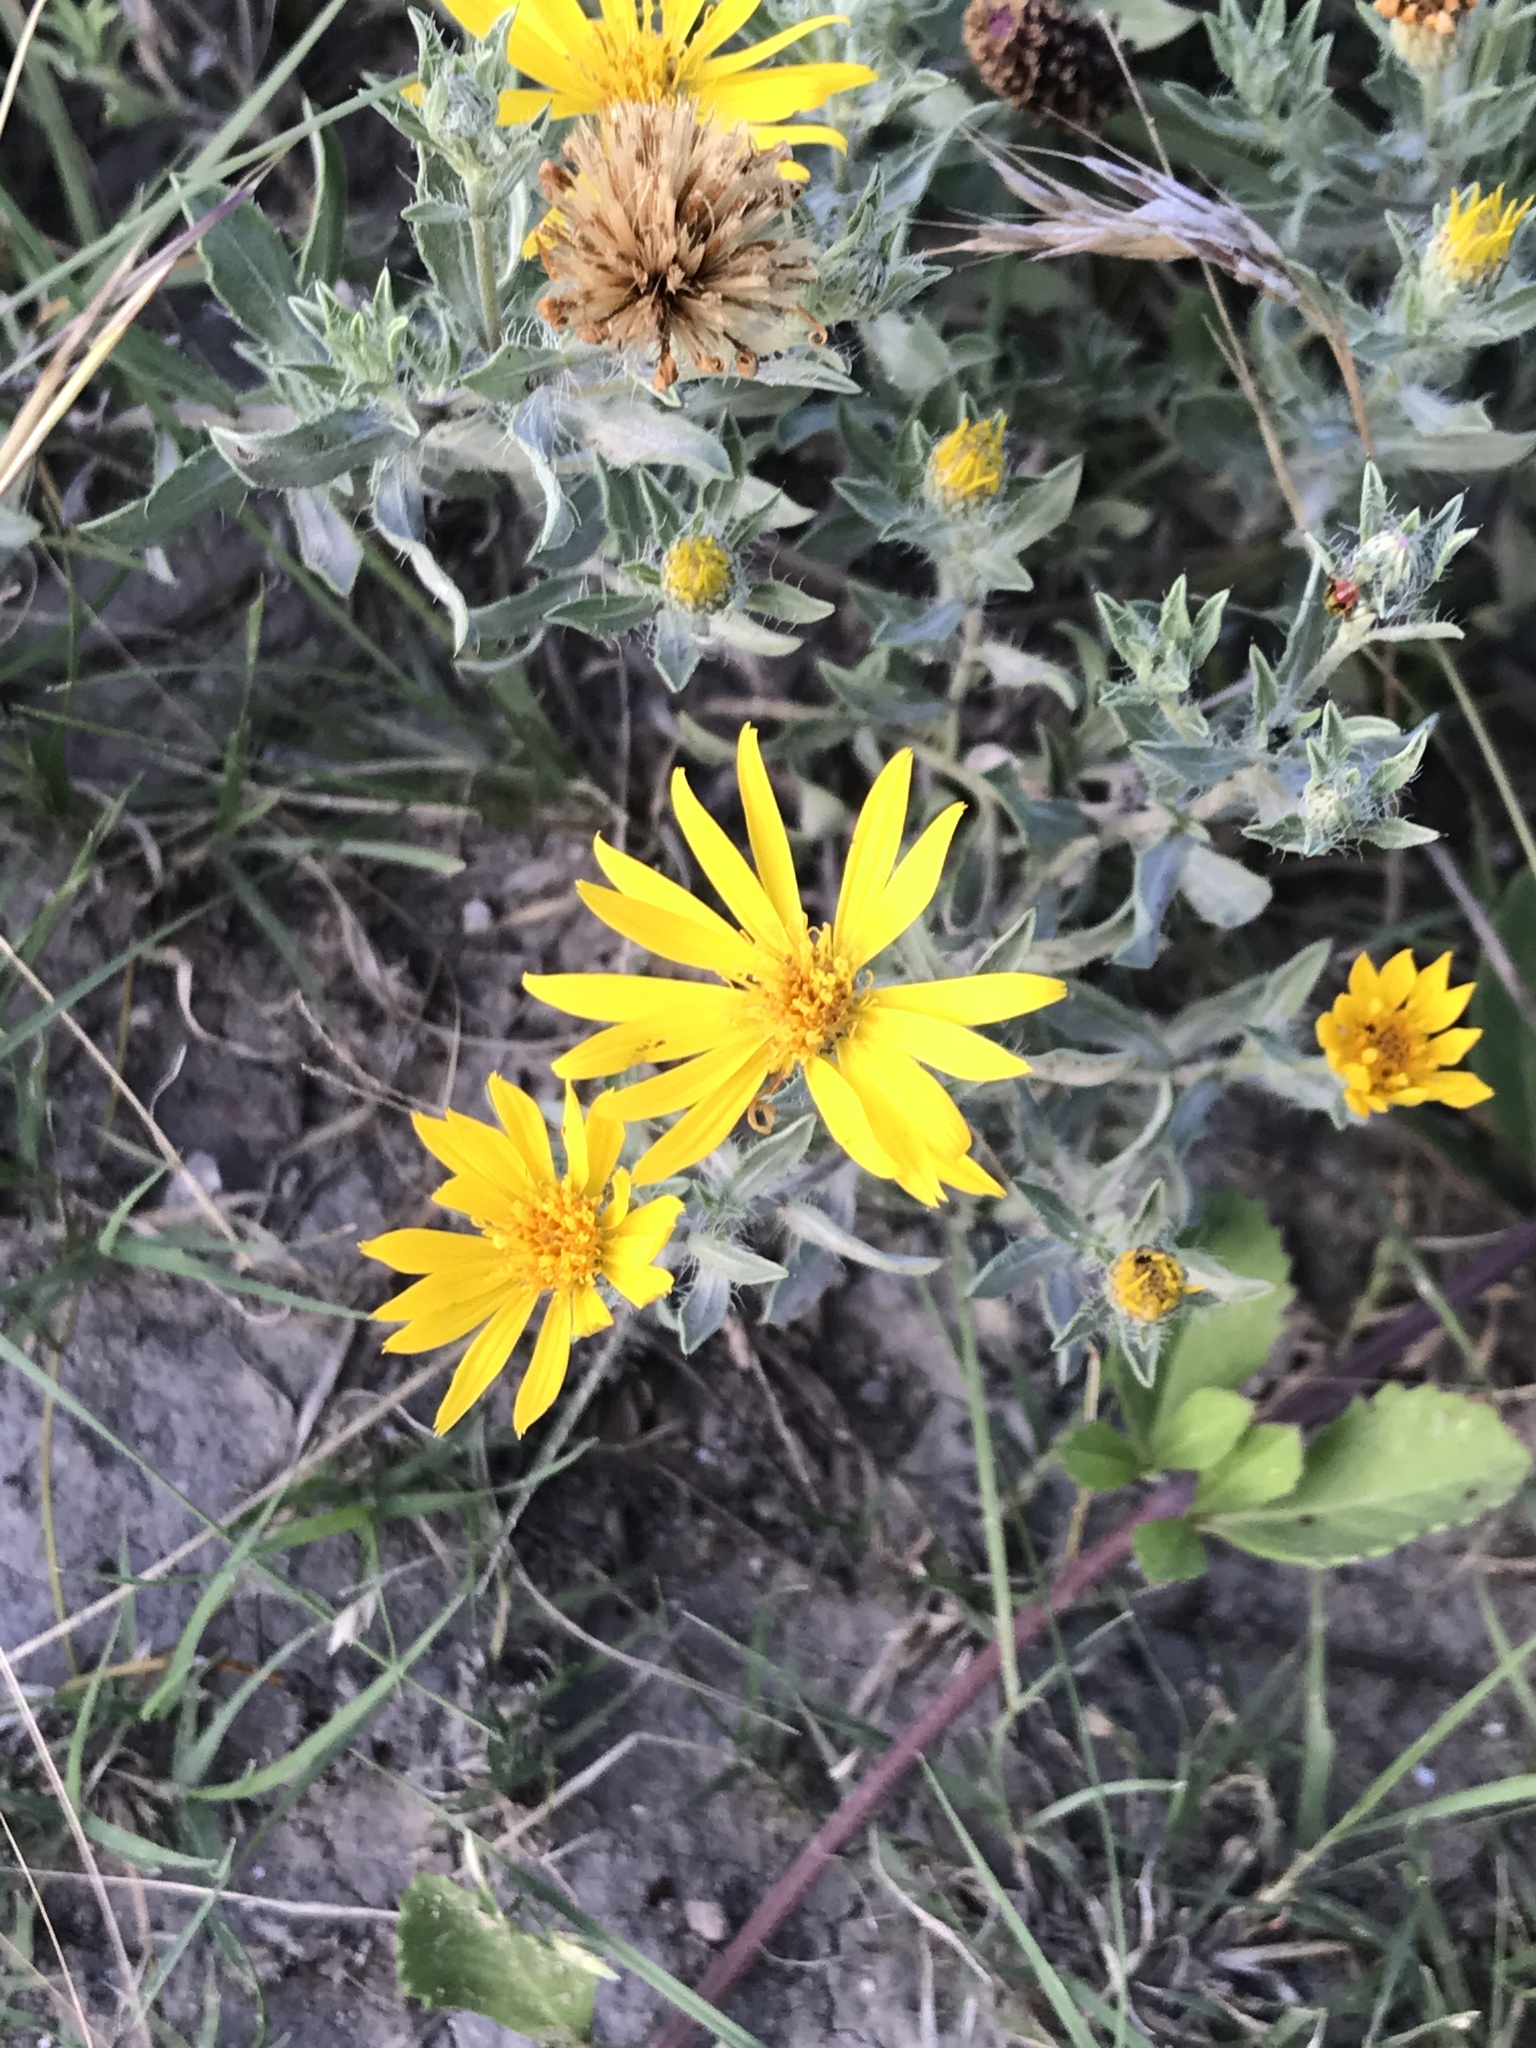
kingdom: Plantae
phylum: Tracheophyta
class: Magnoliopsida
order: Asterales
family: Asteraceae
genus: Heterotheca
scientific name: Heterotheca canescens
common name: Hoary golden-aster
